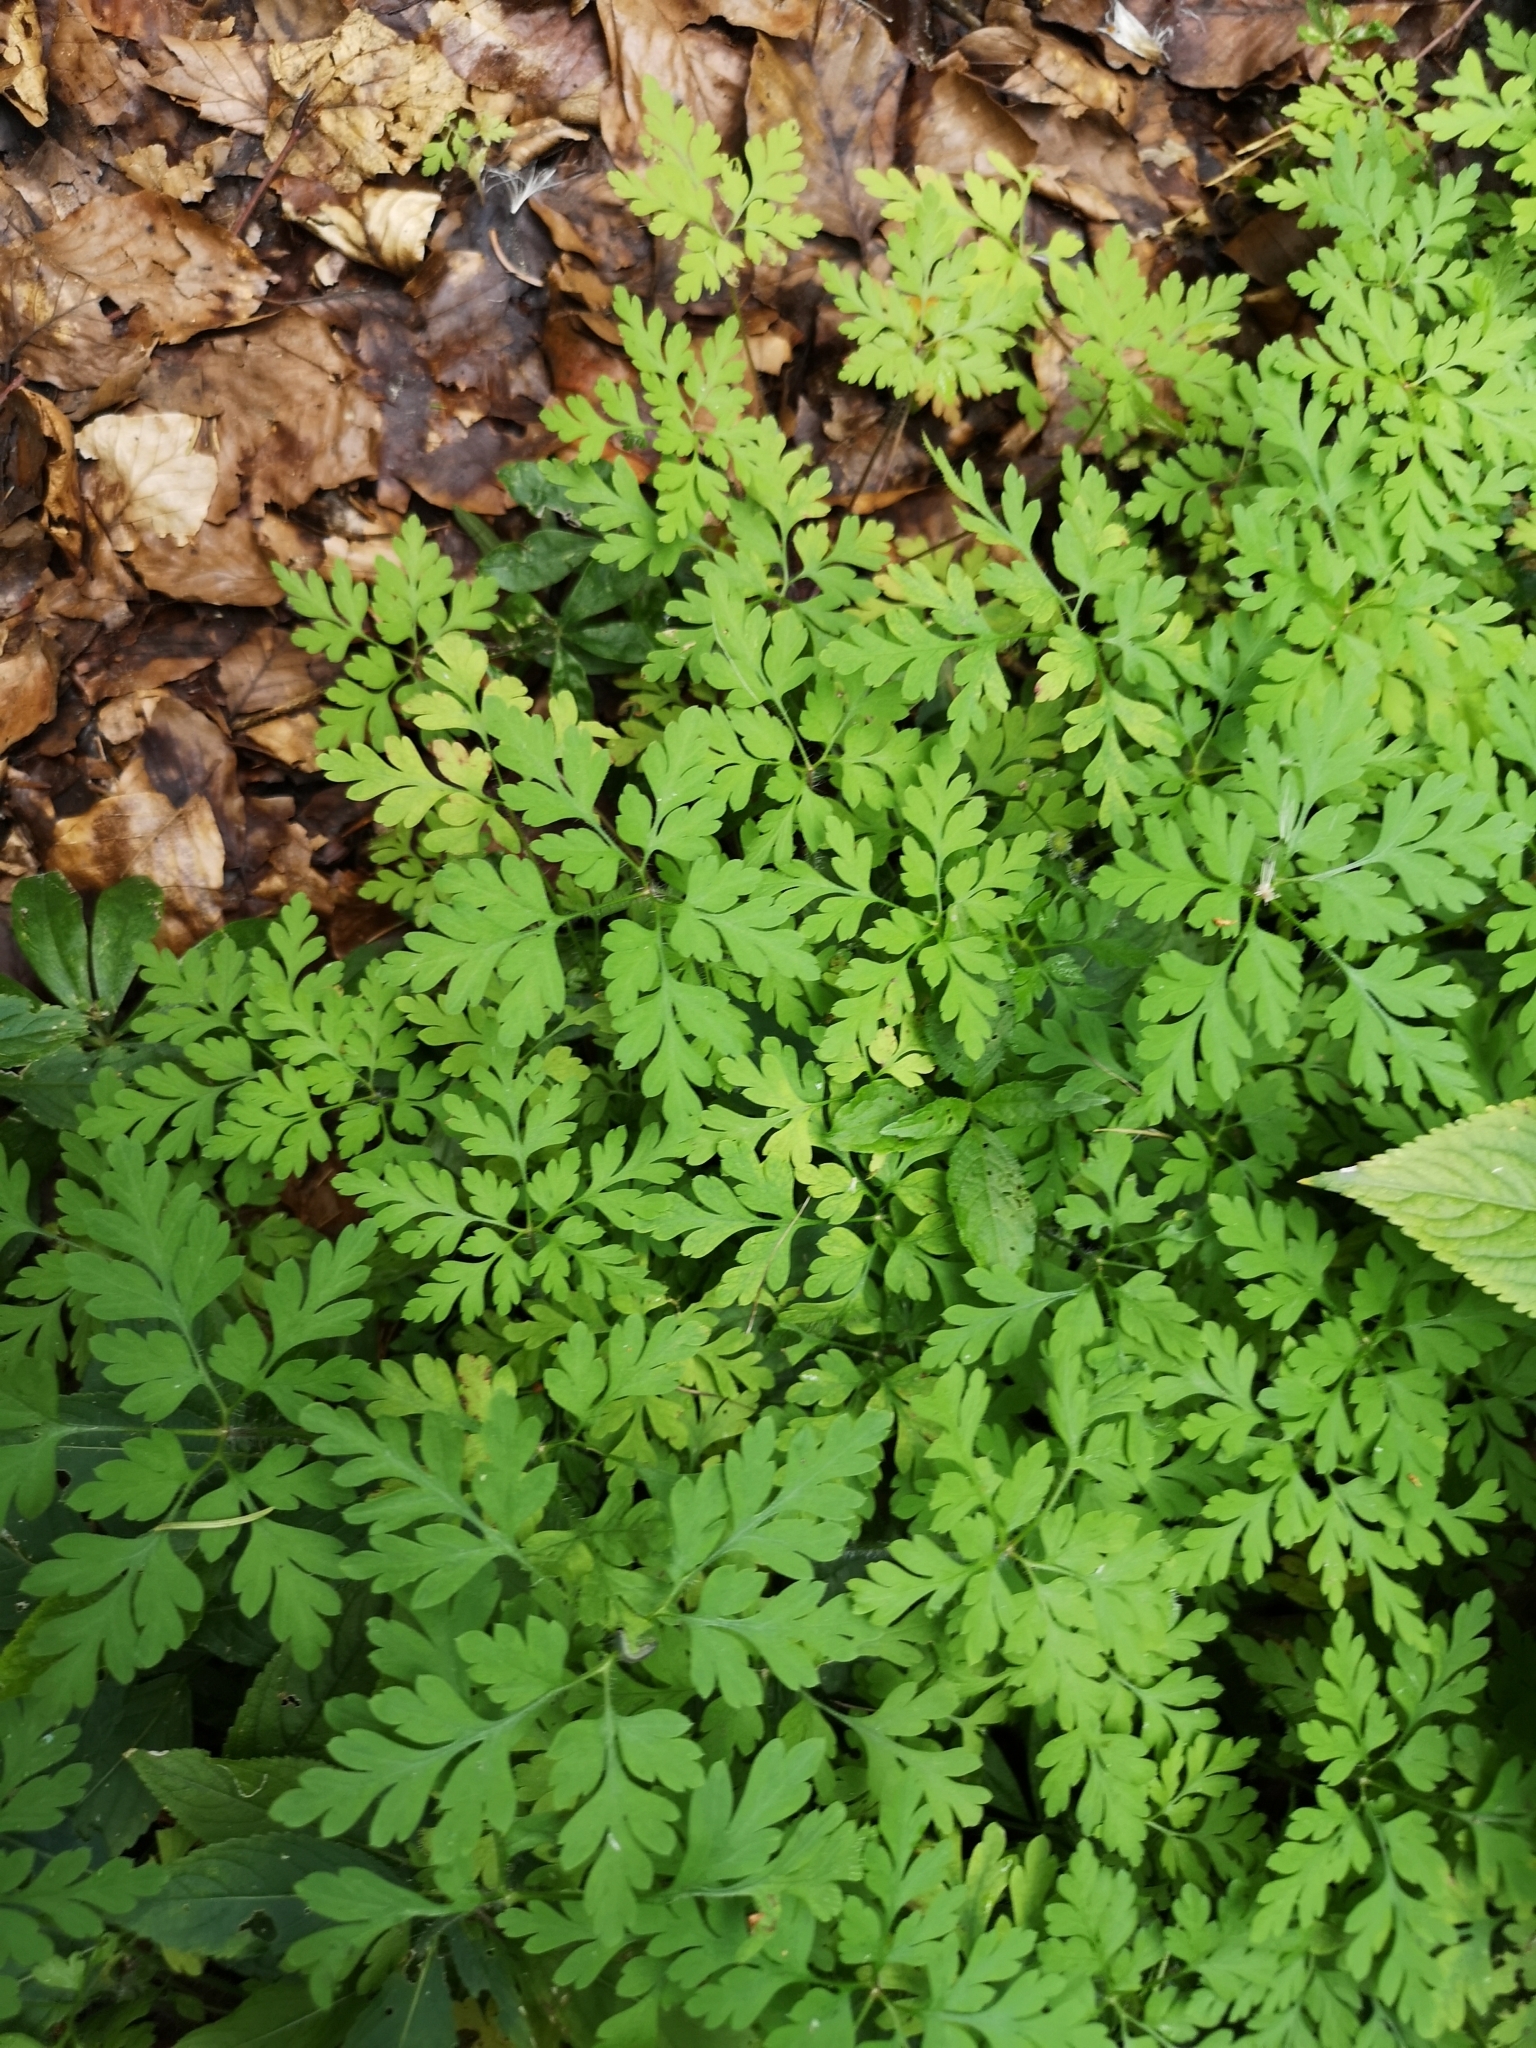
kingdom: Plantae
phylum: Tracheophyta
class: Magnoliopsida
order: Geraniales
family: Geraniaceae
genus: Geranium
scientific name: Geranium robertianum
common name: Herb-robert
